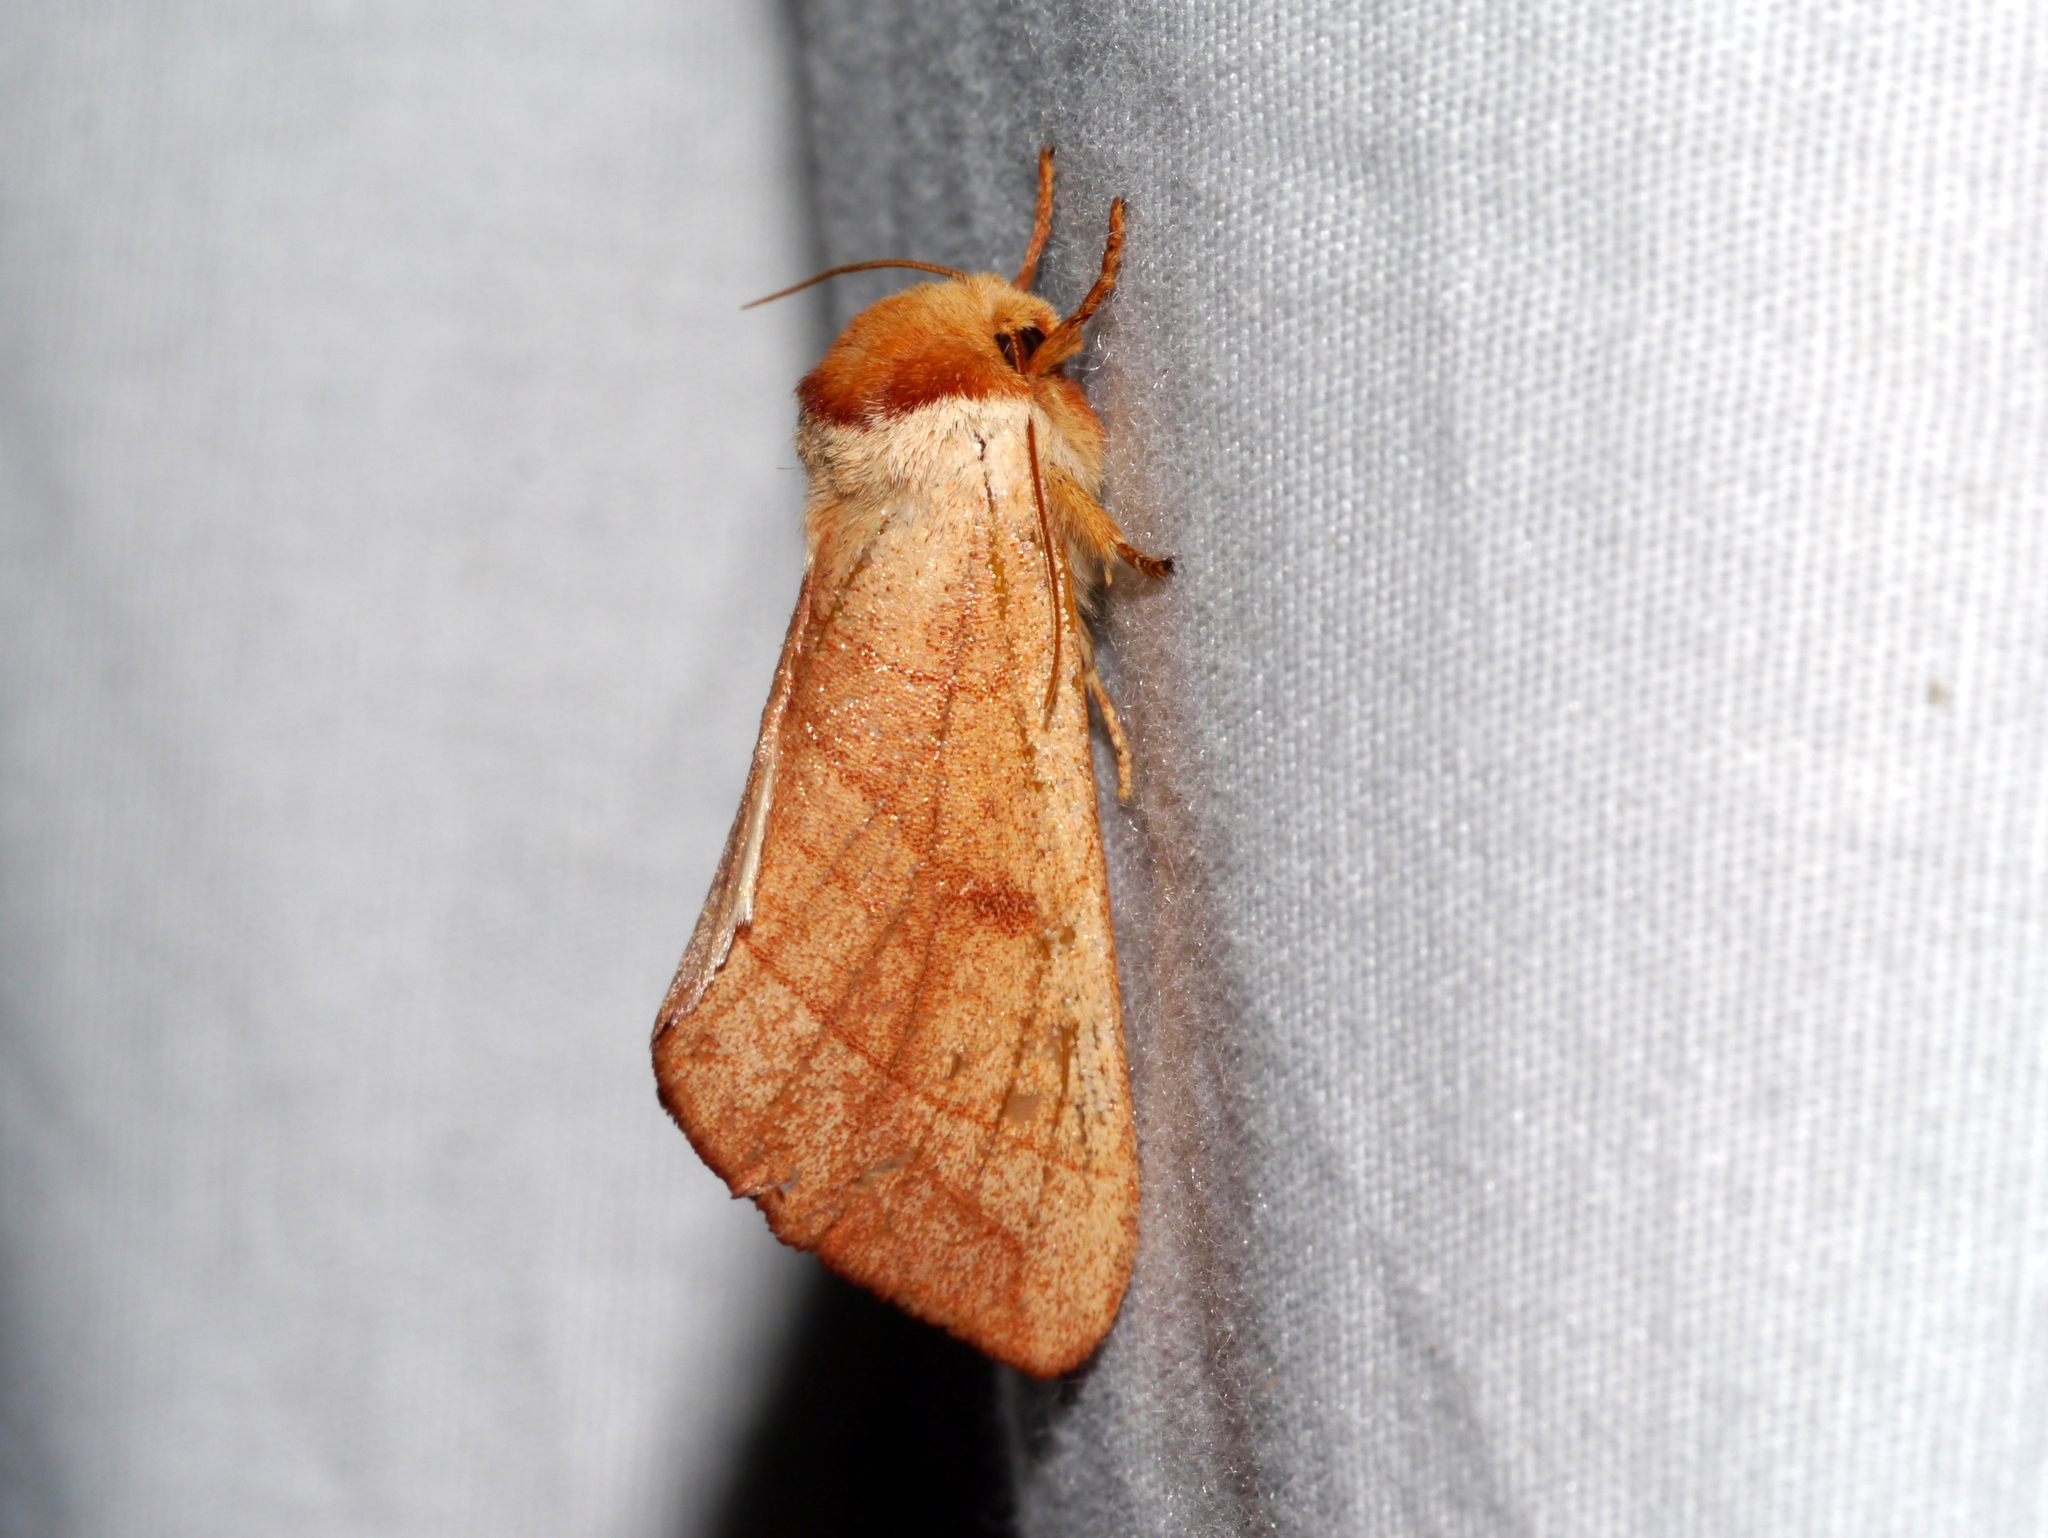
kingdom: Animalia
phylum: Arthropoda
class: Insecta
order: Lepidoptera
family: Notodontidae
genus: Datana
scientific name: Datana perspicua
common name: Spotted datana
